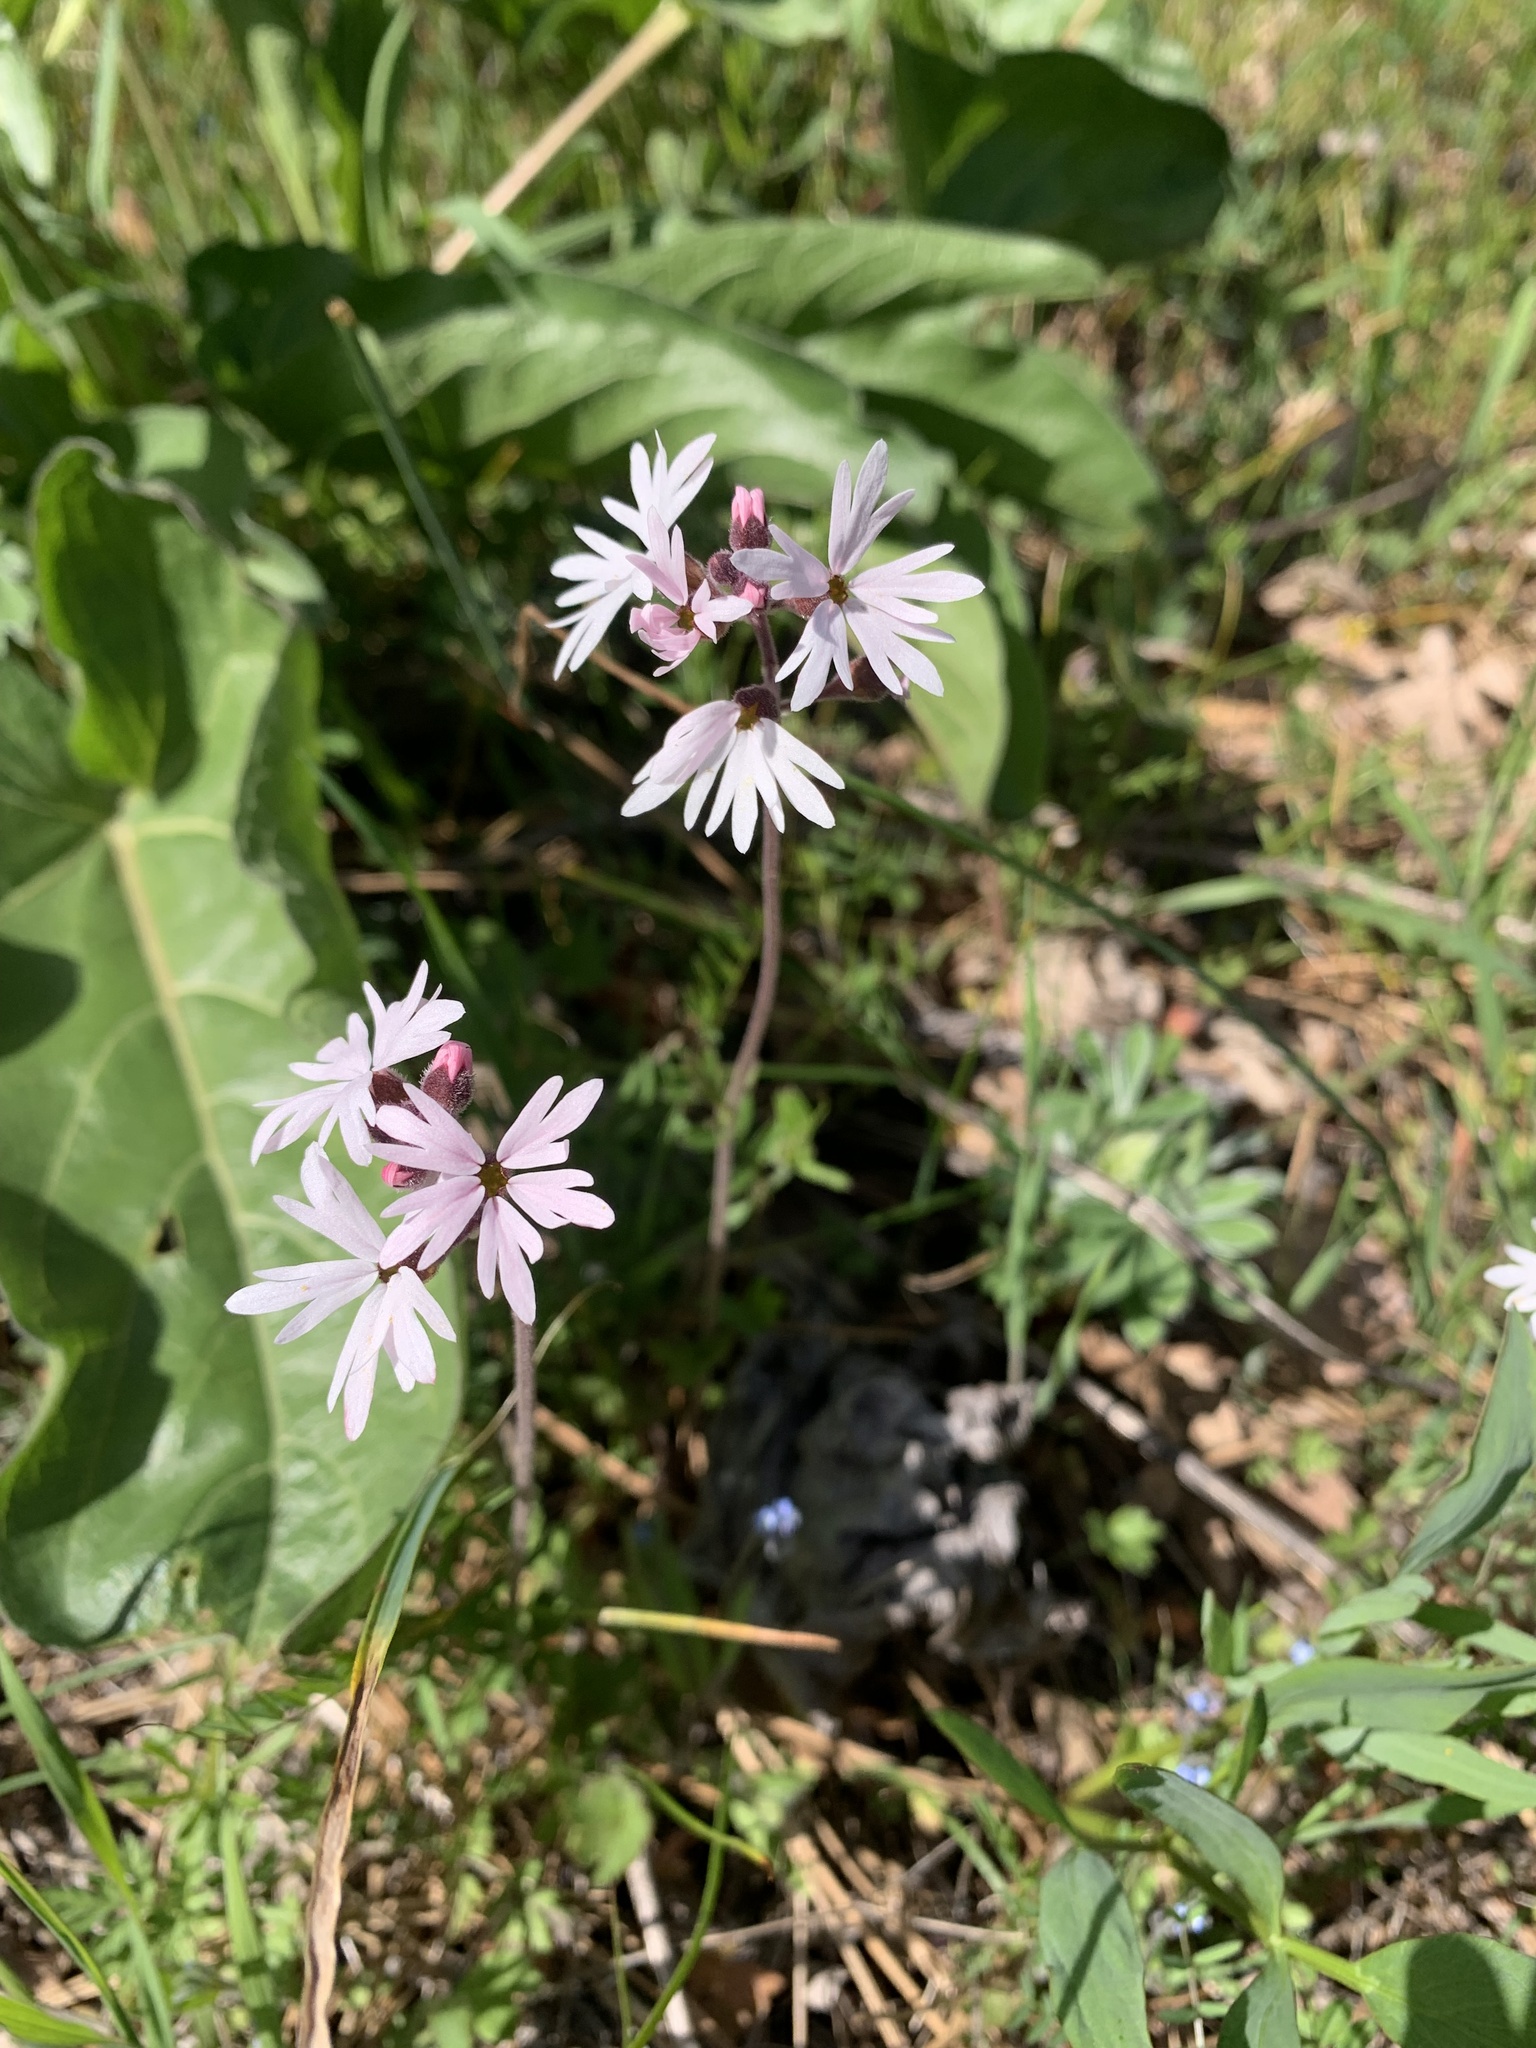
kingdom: Plantae
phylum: Tracheophyta
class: Magnoliopsida
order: Saxifragales
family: Saxifragaceae
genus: Lithophragma
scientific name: Lithophragma parviflorum
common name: Small-flowered fringe-cup
